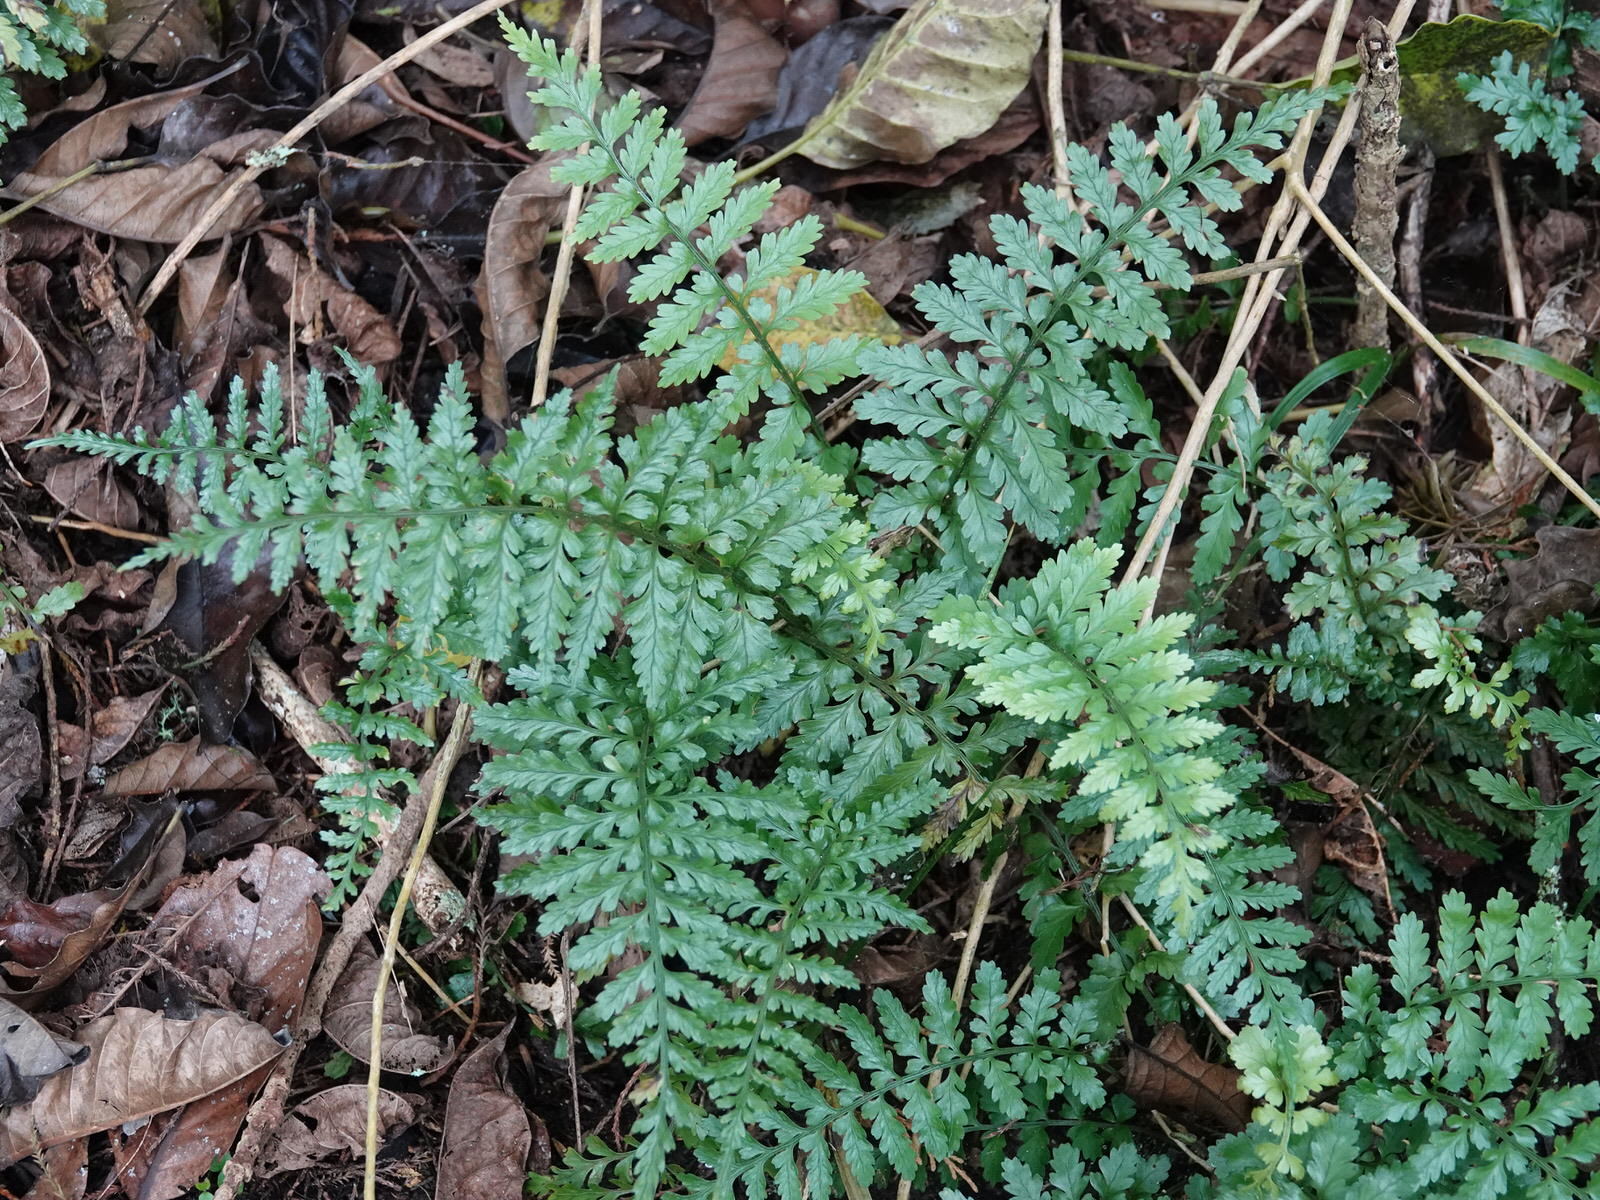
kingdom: Plantae
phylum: Tracheophyta
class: Polypodiopsida
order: Polypodiales
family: Aspleniaceae
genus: Asplenium
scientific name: Asplenium lamprophyllum
